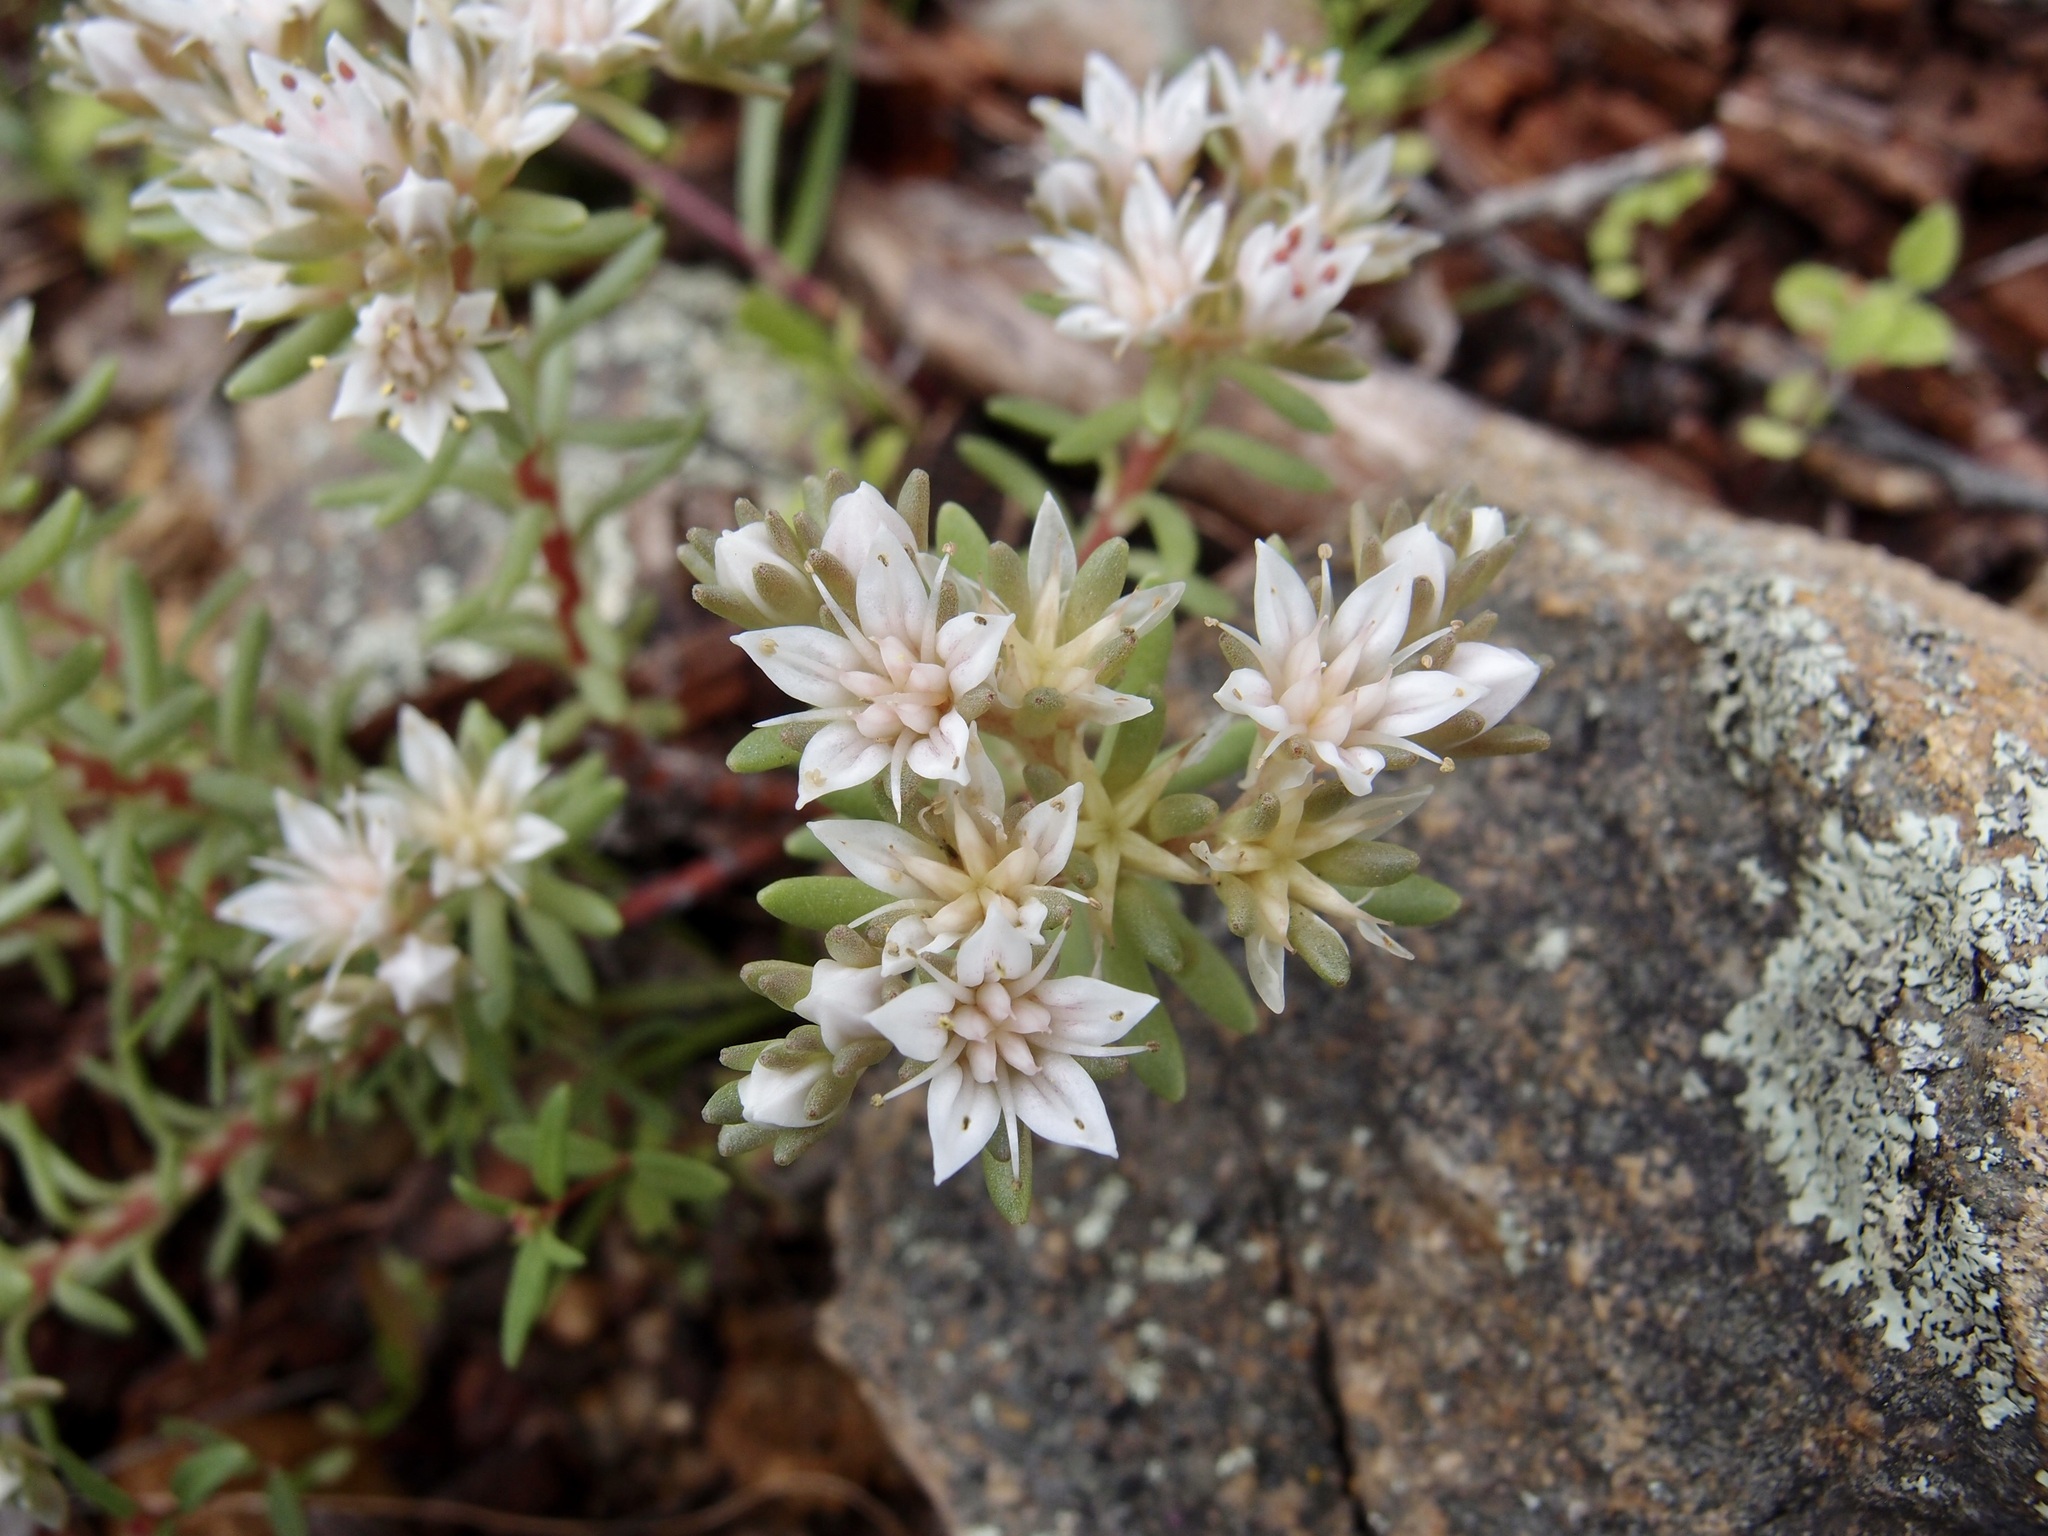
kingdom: Plantae
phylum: Tracheophyta
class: Magnoliopsida
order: Saxifragales
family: Crassulaceae
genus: Sedum
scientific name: Sedum stelliforme
